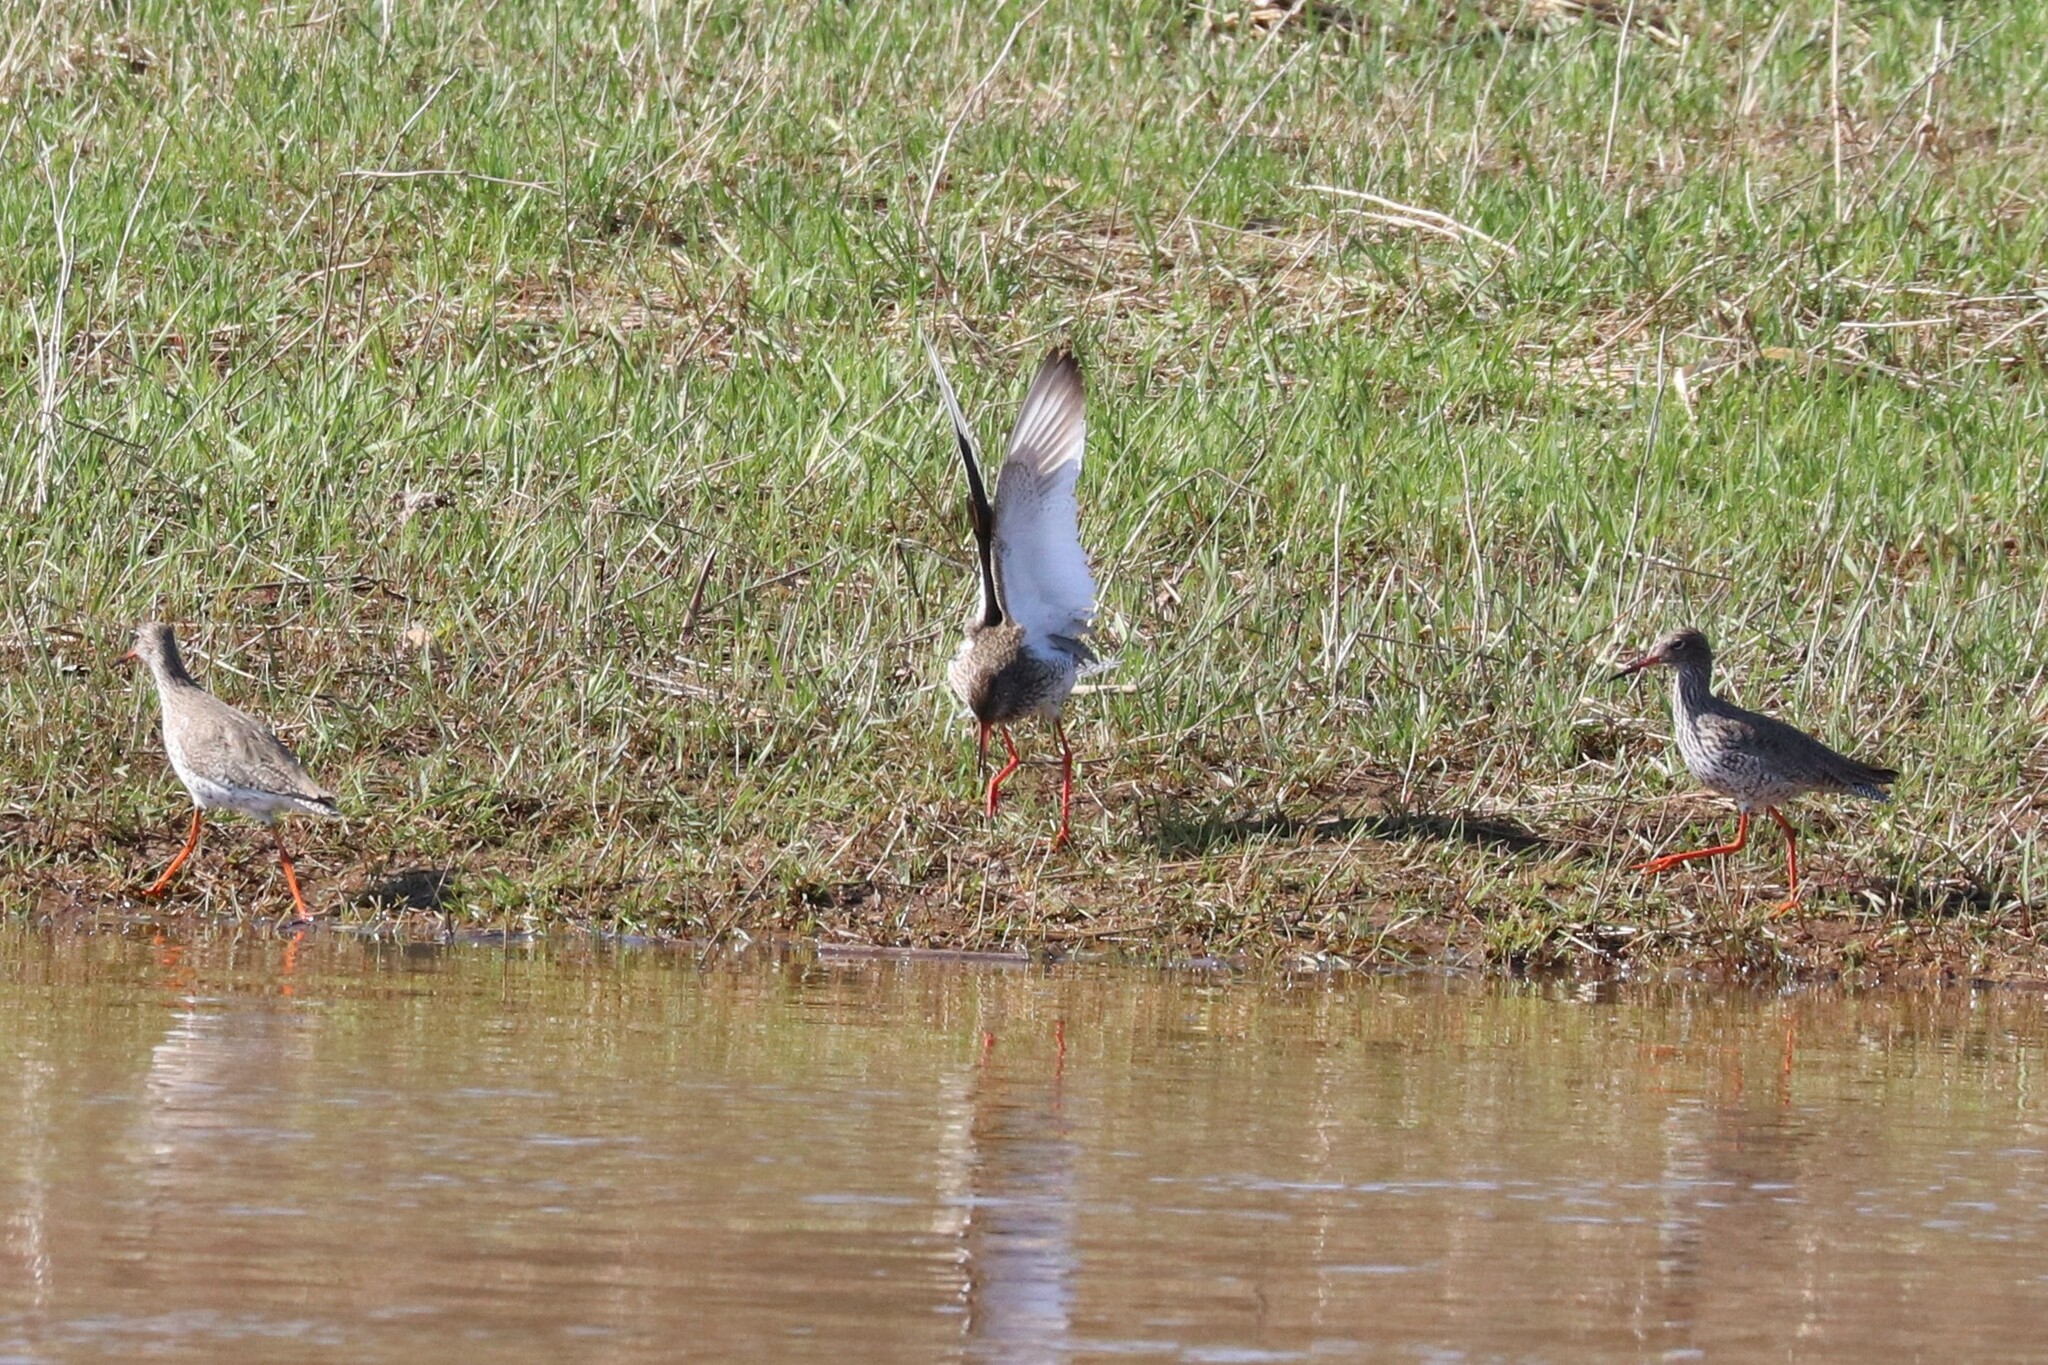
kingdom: Animalia
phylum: Chordata
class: Aves
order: Charadriiformes
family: Scolopacidae
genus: Tringa
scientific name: Tringa totanus
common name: Common redshank
